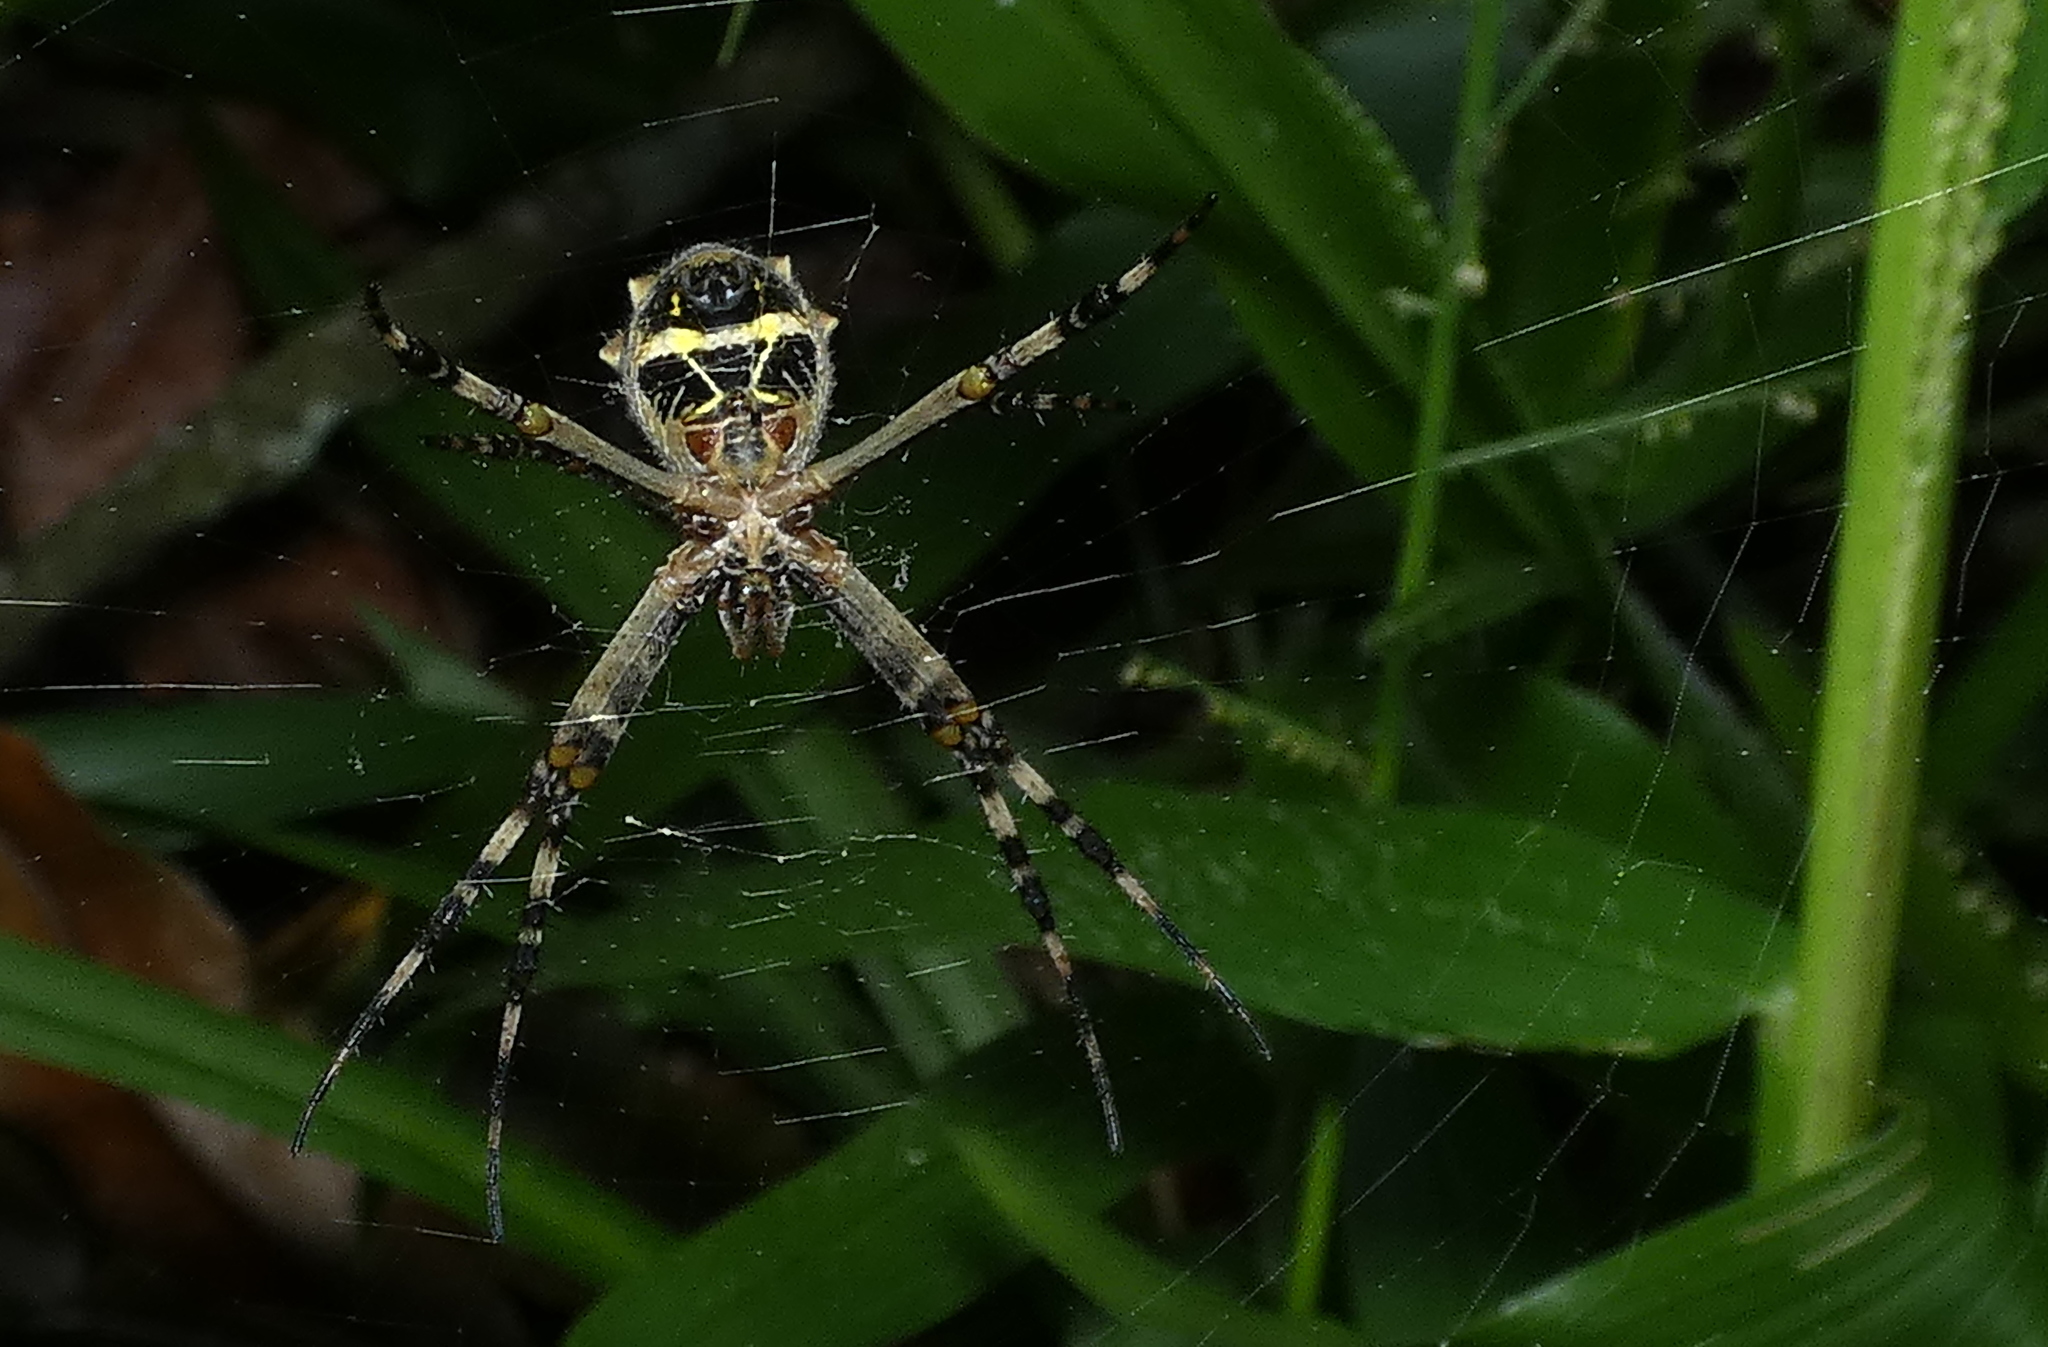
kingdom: Animalia
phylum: Arthropoda
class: Arachnida
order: Araneae
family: Araneidae
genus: Argiope
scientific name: Argiope argentata
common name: Orb weavers
